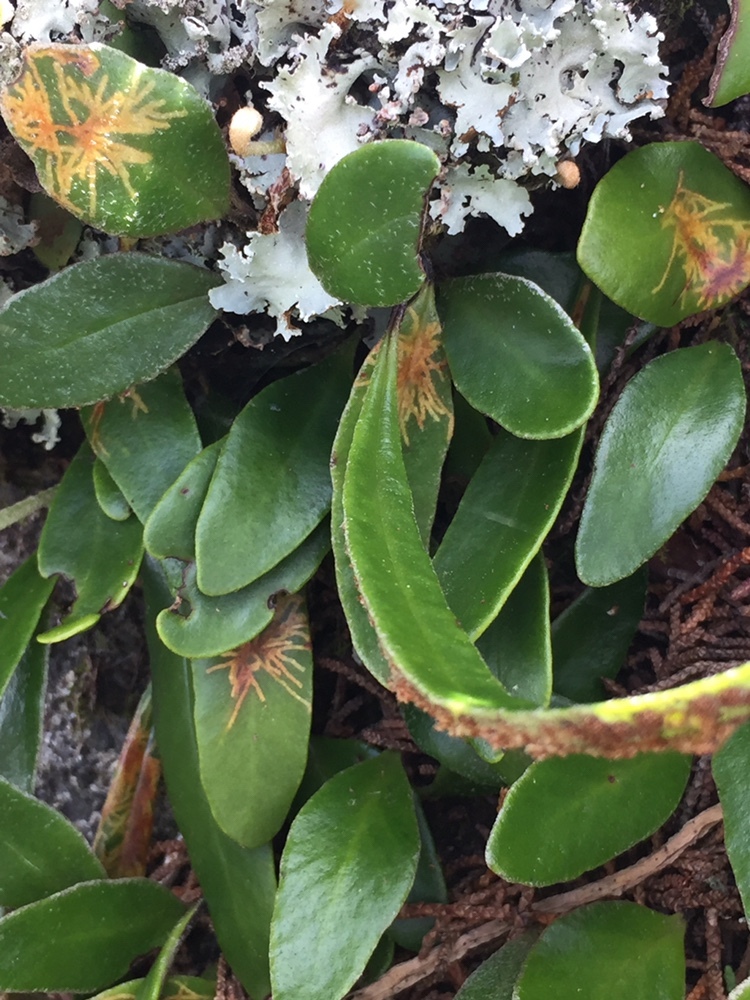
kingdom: Animalia
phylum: Arthropoda
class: Insecta
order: Lepidoptera
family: Tortricidae
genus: Philocryptica
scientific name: Philocryptica polypodii
